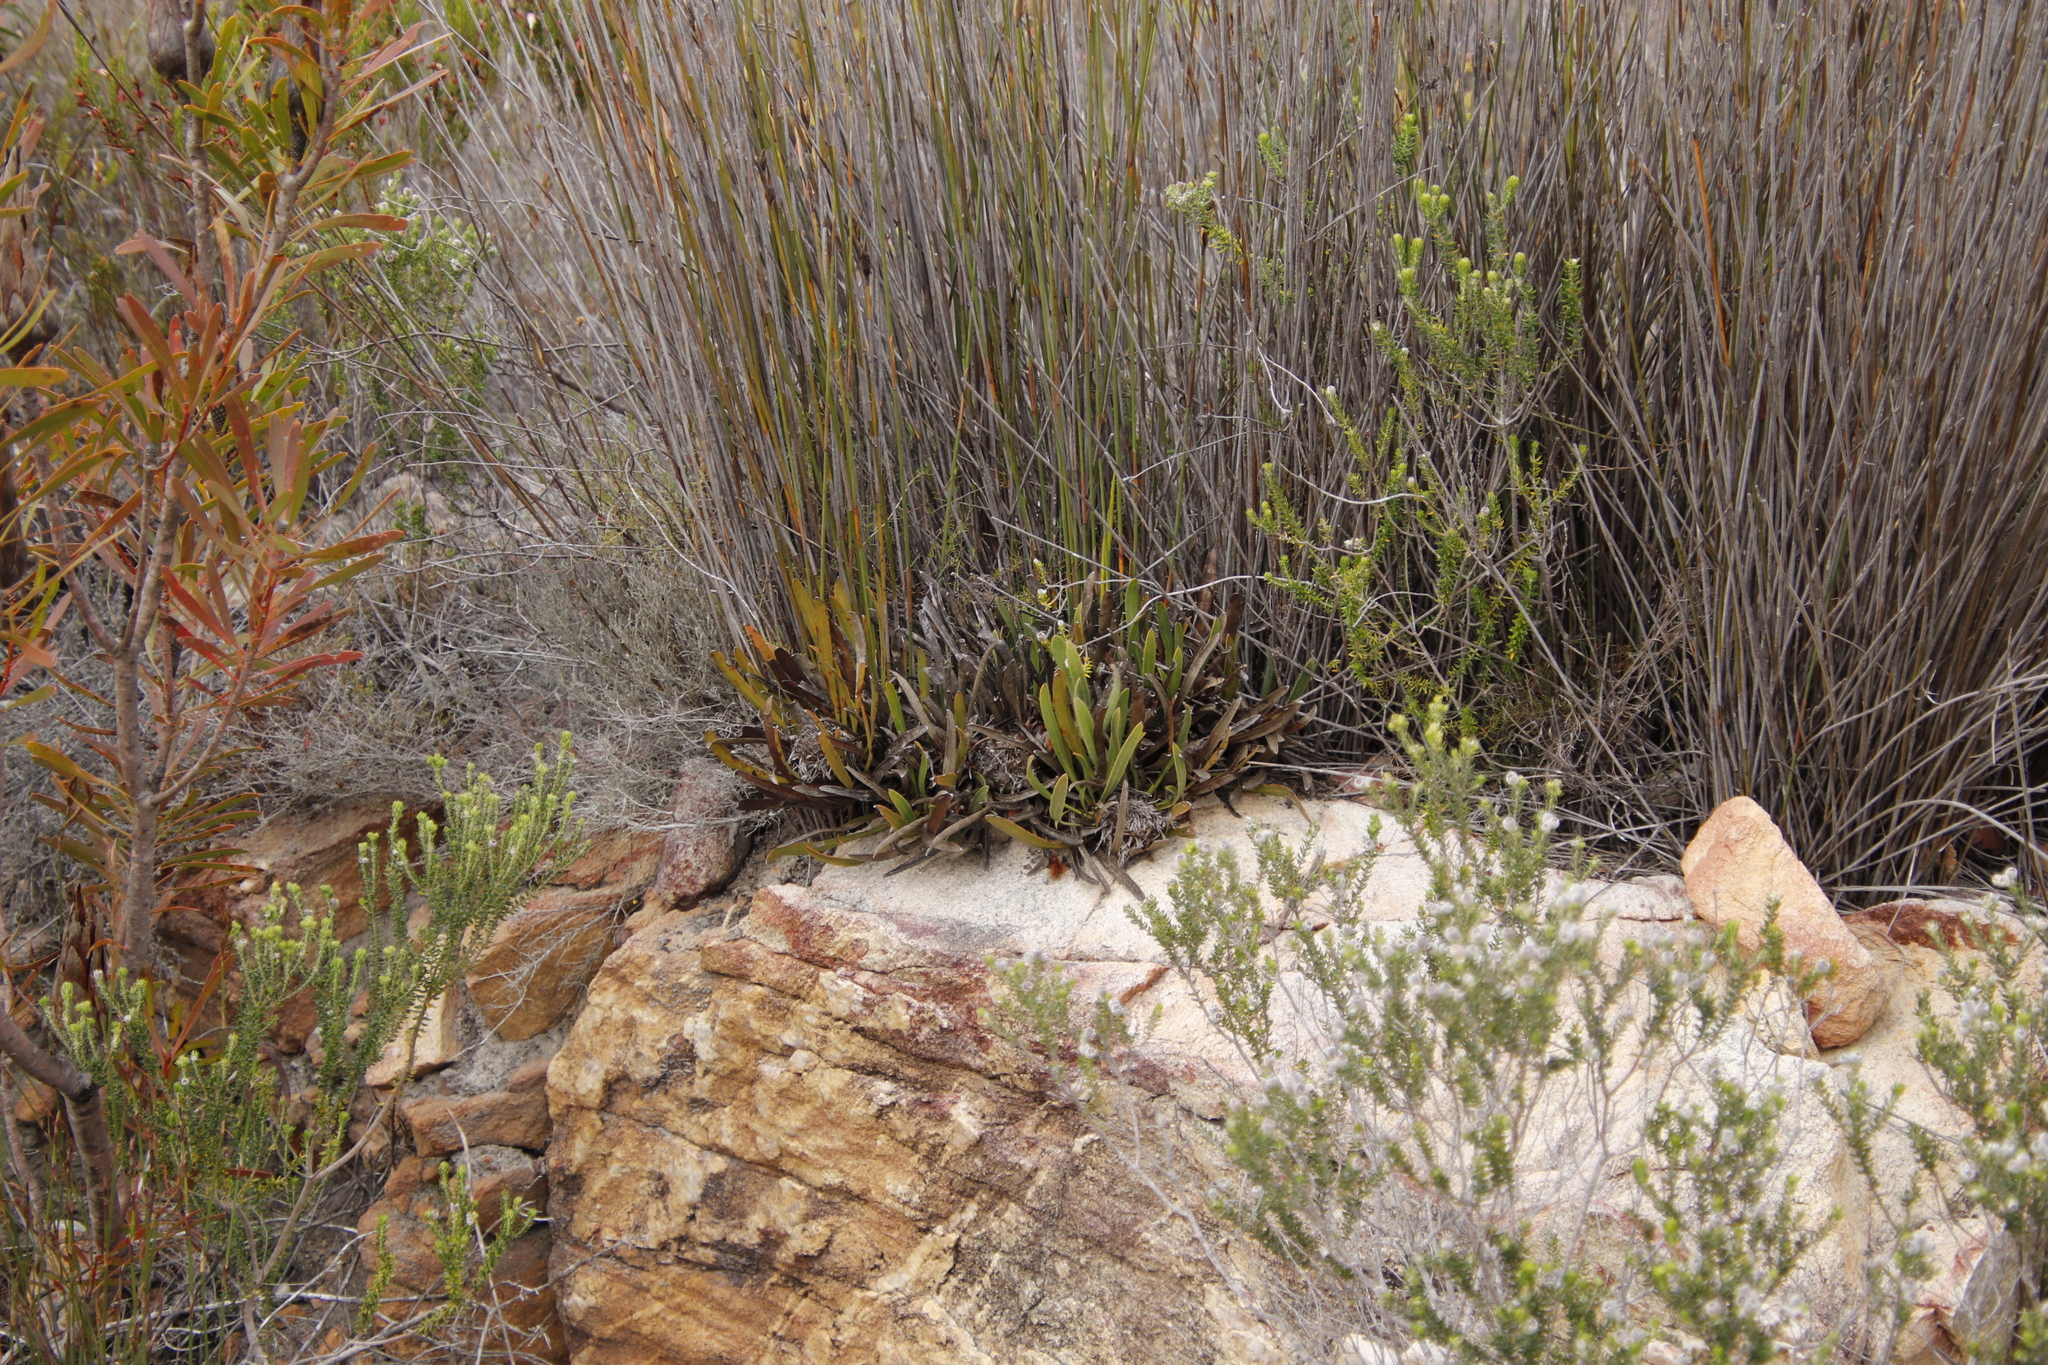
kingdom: Plantae
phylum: Tracheophyta
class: Magnoliopsida
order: Proteales
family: Proteaceae
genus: Protea
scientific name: Protea aspera
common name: Rough-leaf sugarbush
